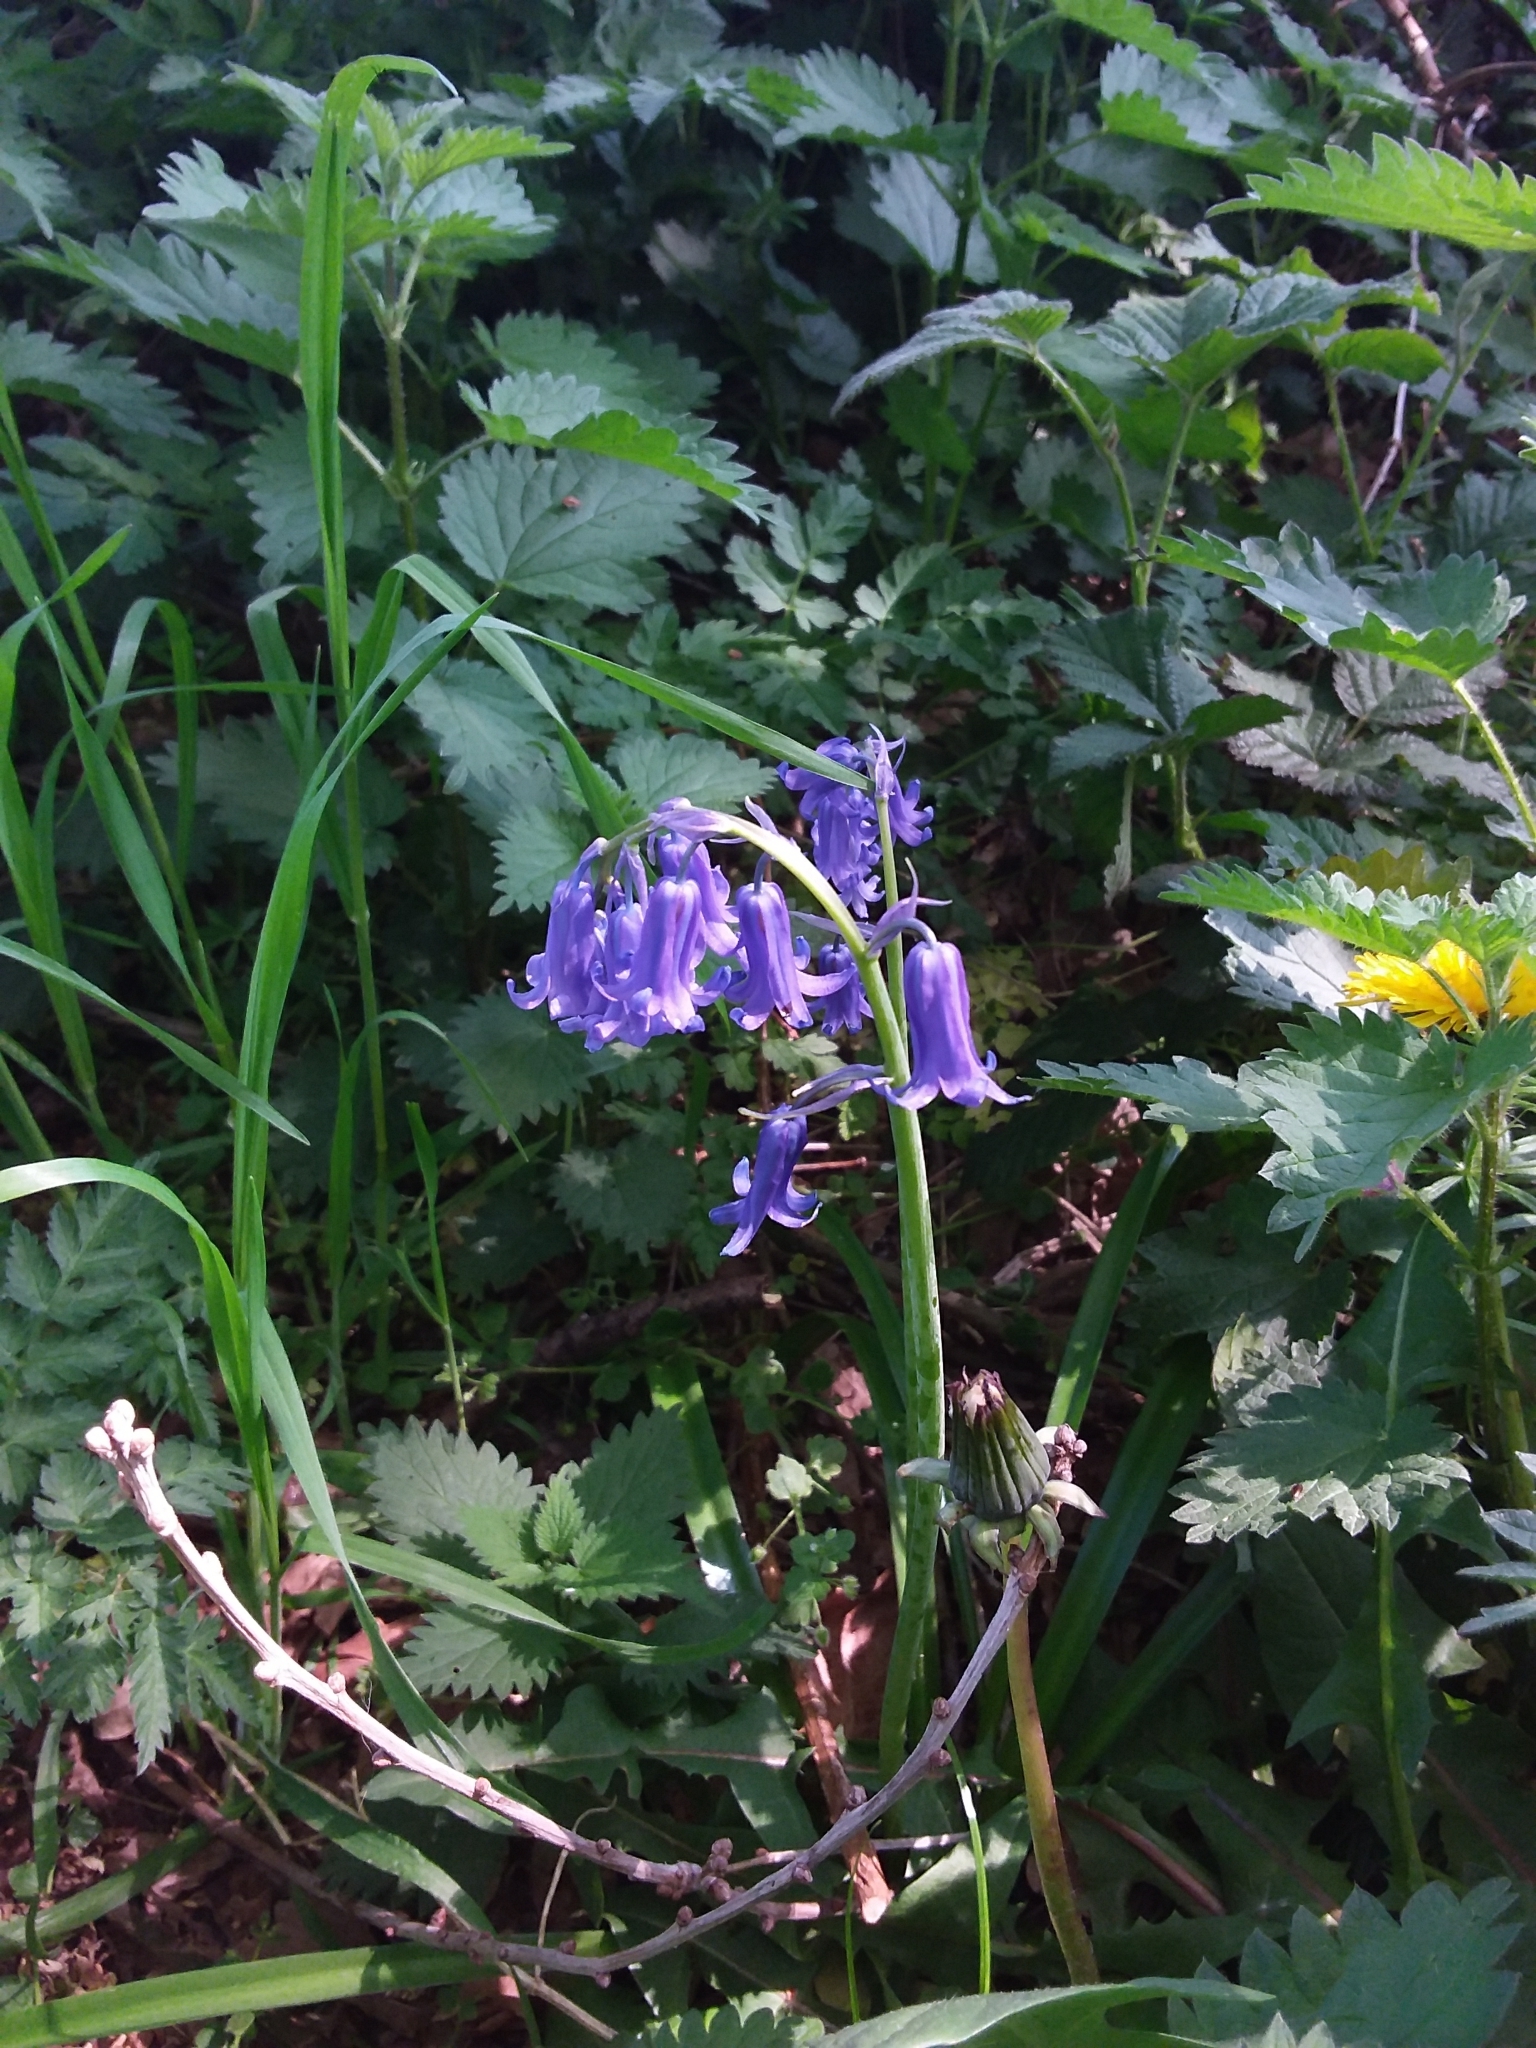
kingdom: Plantae
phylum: Tracheophyta
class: Liliopsida
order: Asparagales
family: Asparagaceae
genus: Hyacinthoides
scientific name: Hyacinthoides non-scripta
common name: Bluebell
